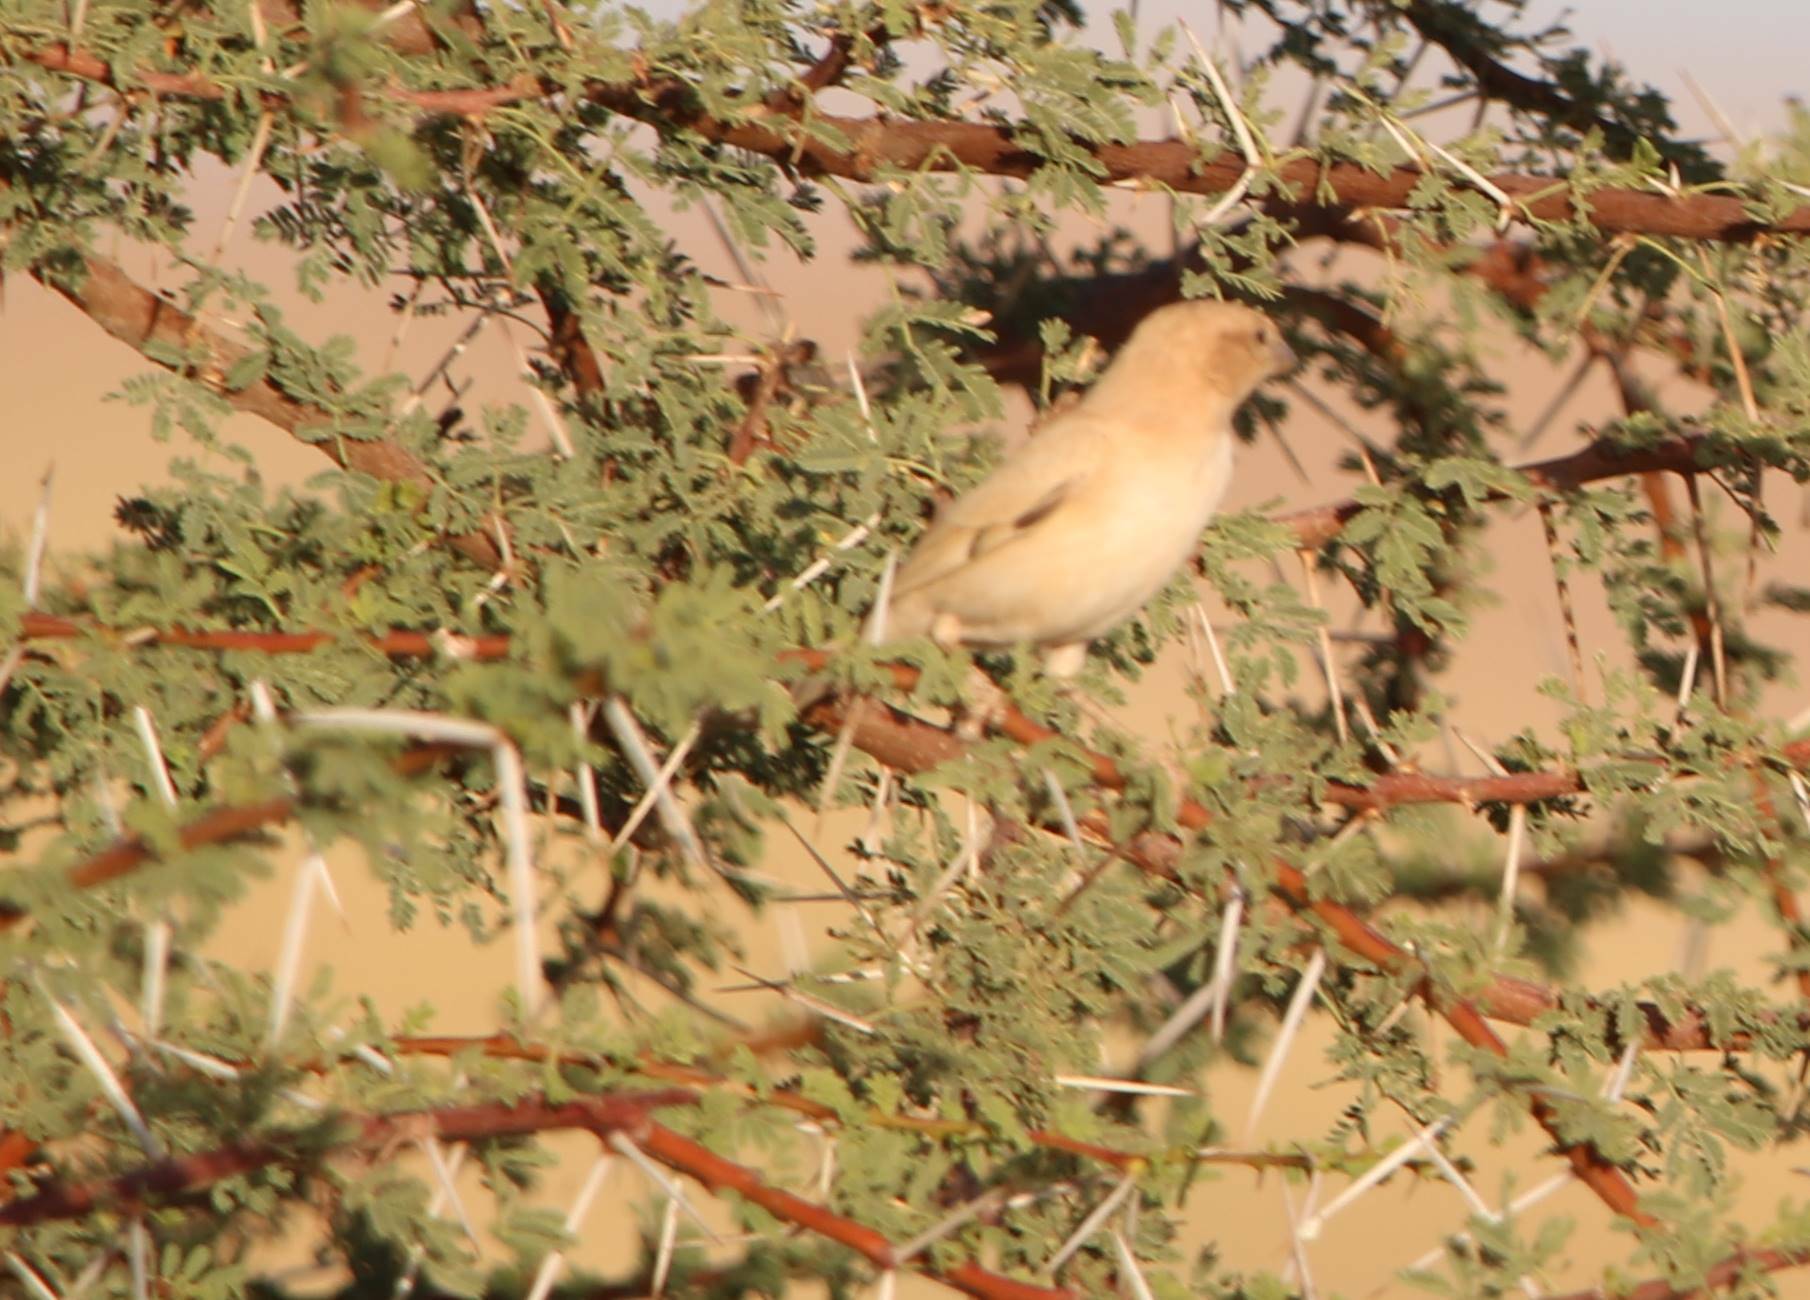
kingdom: Animalia
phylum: Chordata
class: Aves
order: Passeriformes
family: Passeridae
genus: Passer
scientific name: Passer simplex
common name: Desert sparrow
